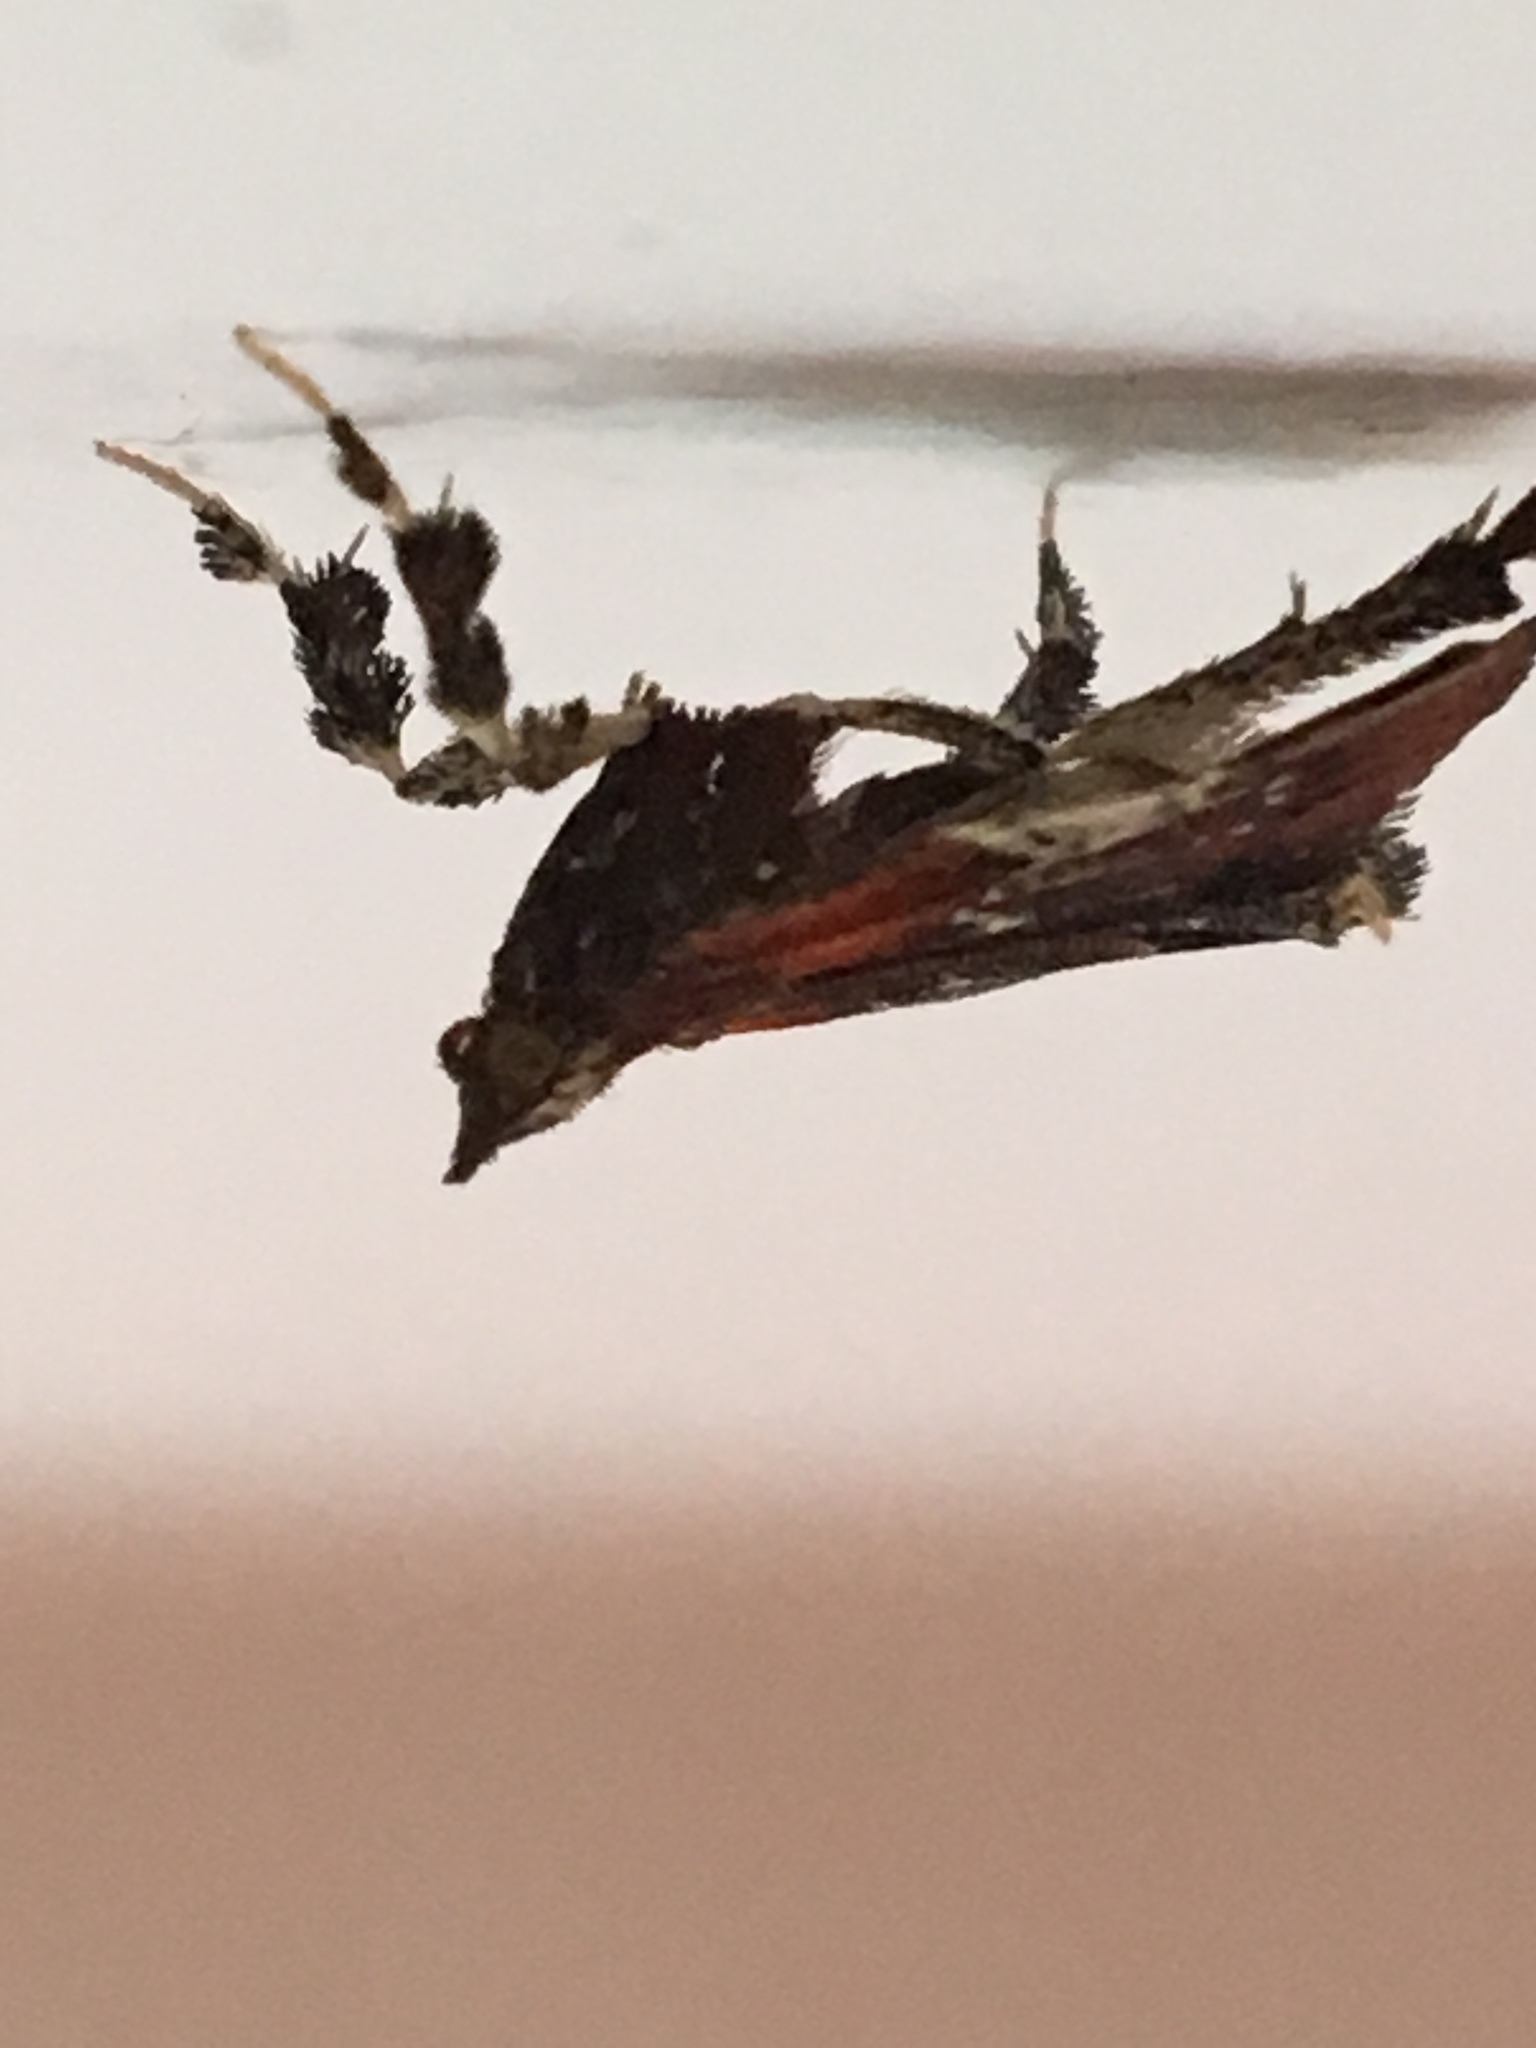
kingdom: Animalia
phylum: Arthropoda
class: Insecta
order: Lepidoptera
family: Pyralidae
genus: Galasa
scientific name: Galasa nigrinodis
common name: Boxwood leaftier moth
